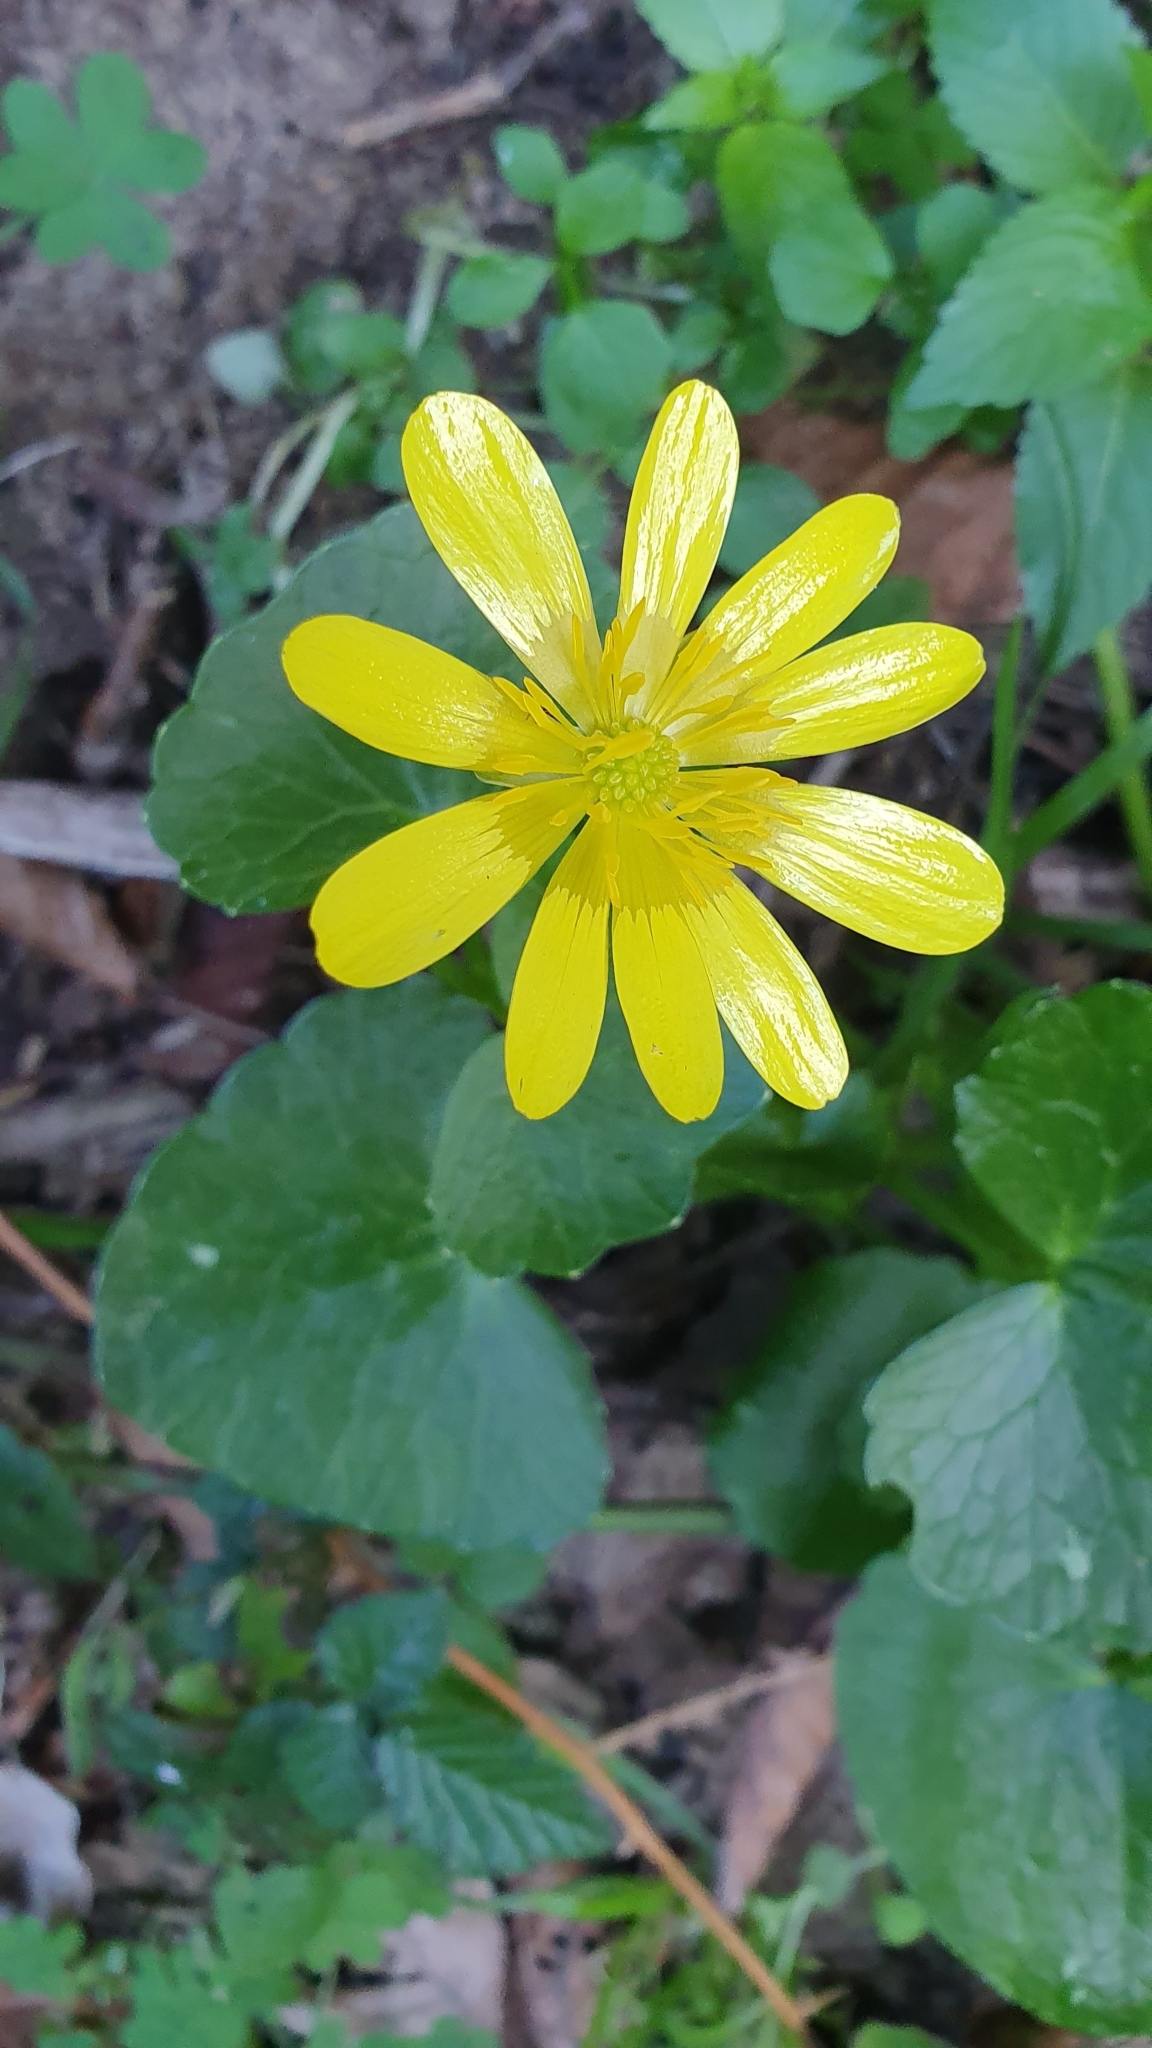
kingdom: Plantae
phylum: Tracheophyta
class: Magnoliopsida
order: Ranunculales
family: Ranunculaceae
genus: Ficaria
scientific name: Ficaria verna
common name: Lesser celandine
